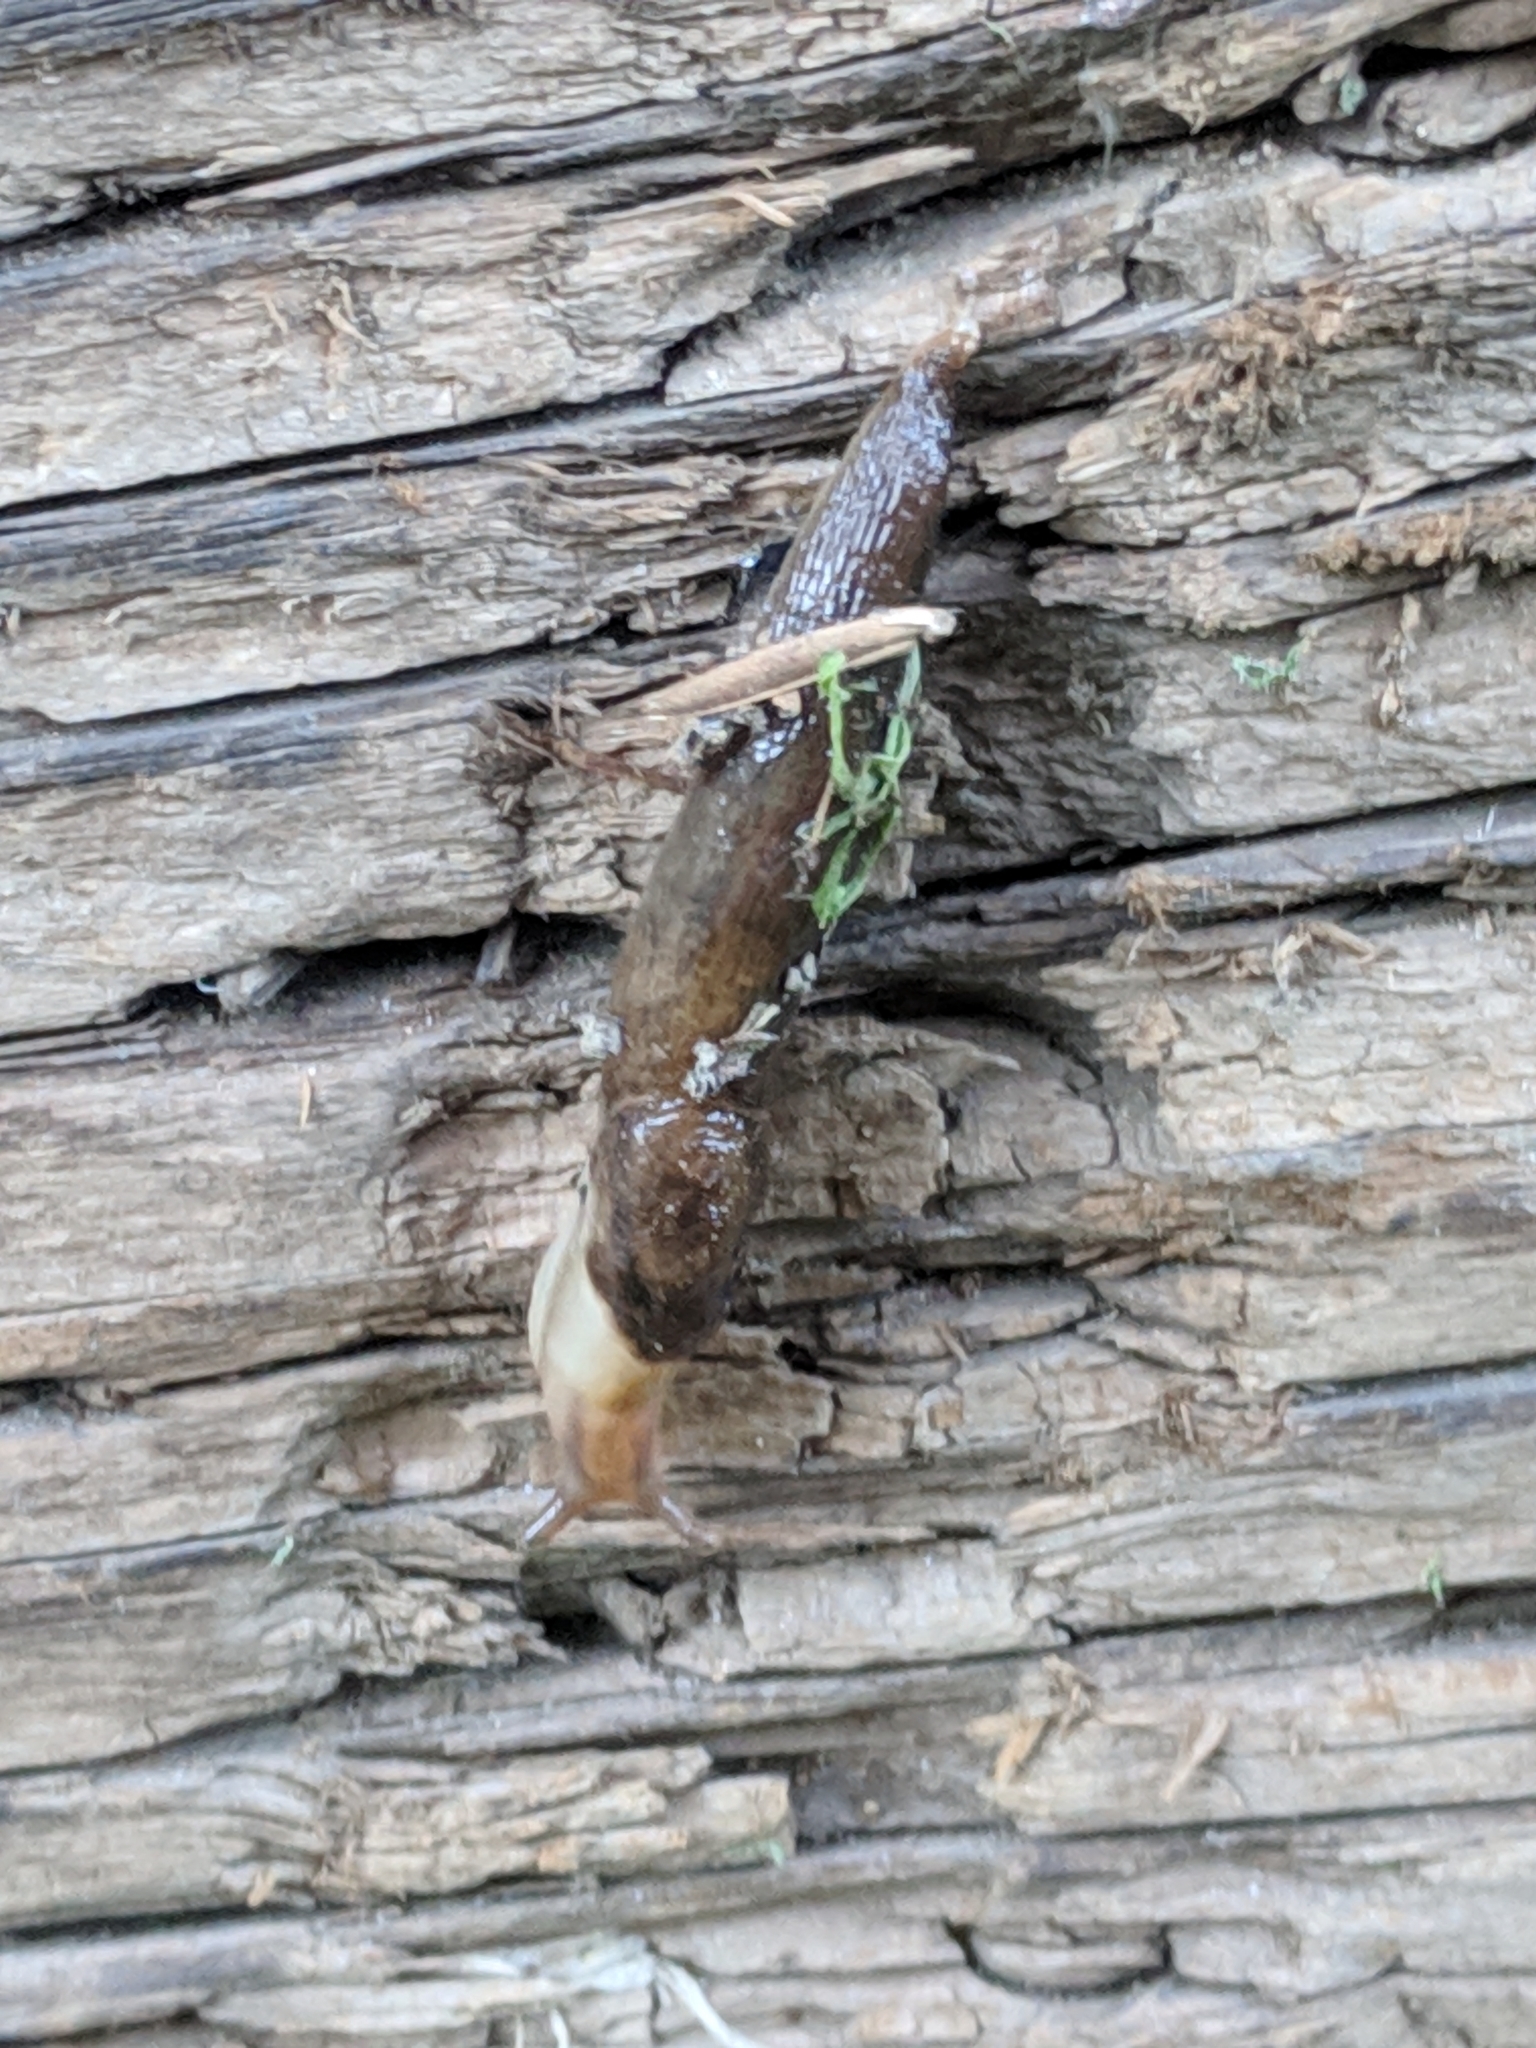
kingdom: Animalia
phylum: Mollusca
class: Gastropoda
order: Stylommatophora
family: Limacidae
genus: Ambigolimax
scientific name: Ambigolimax
